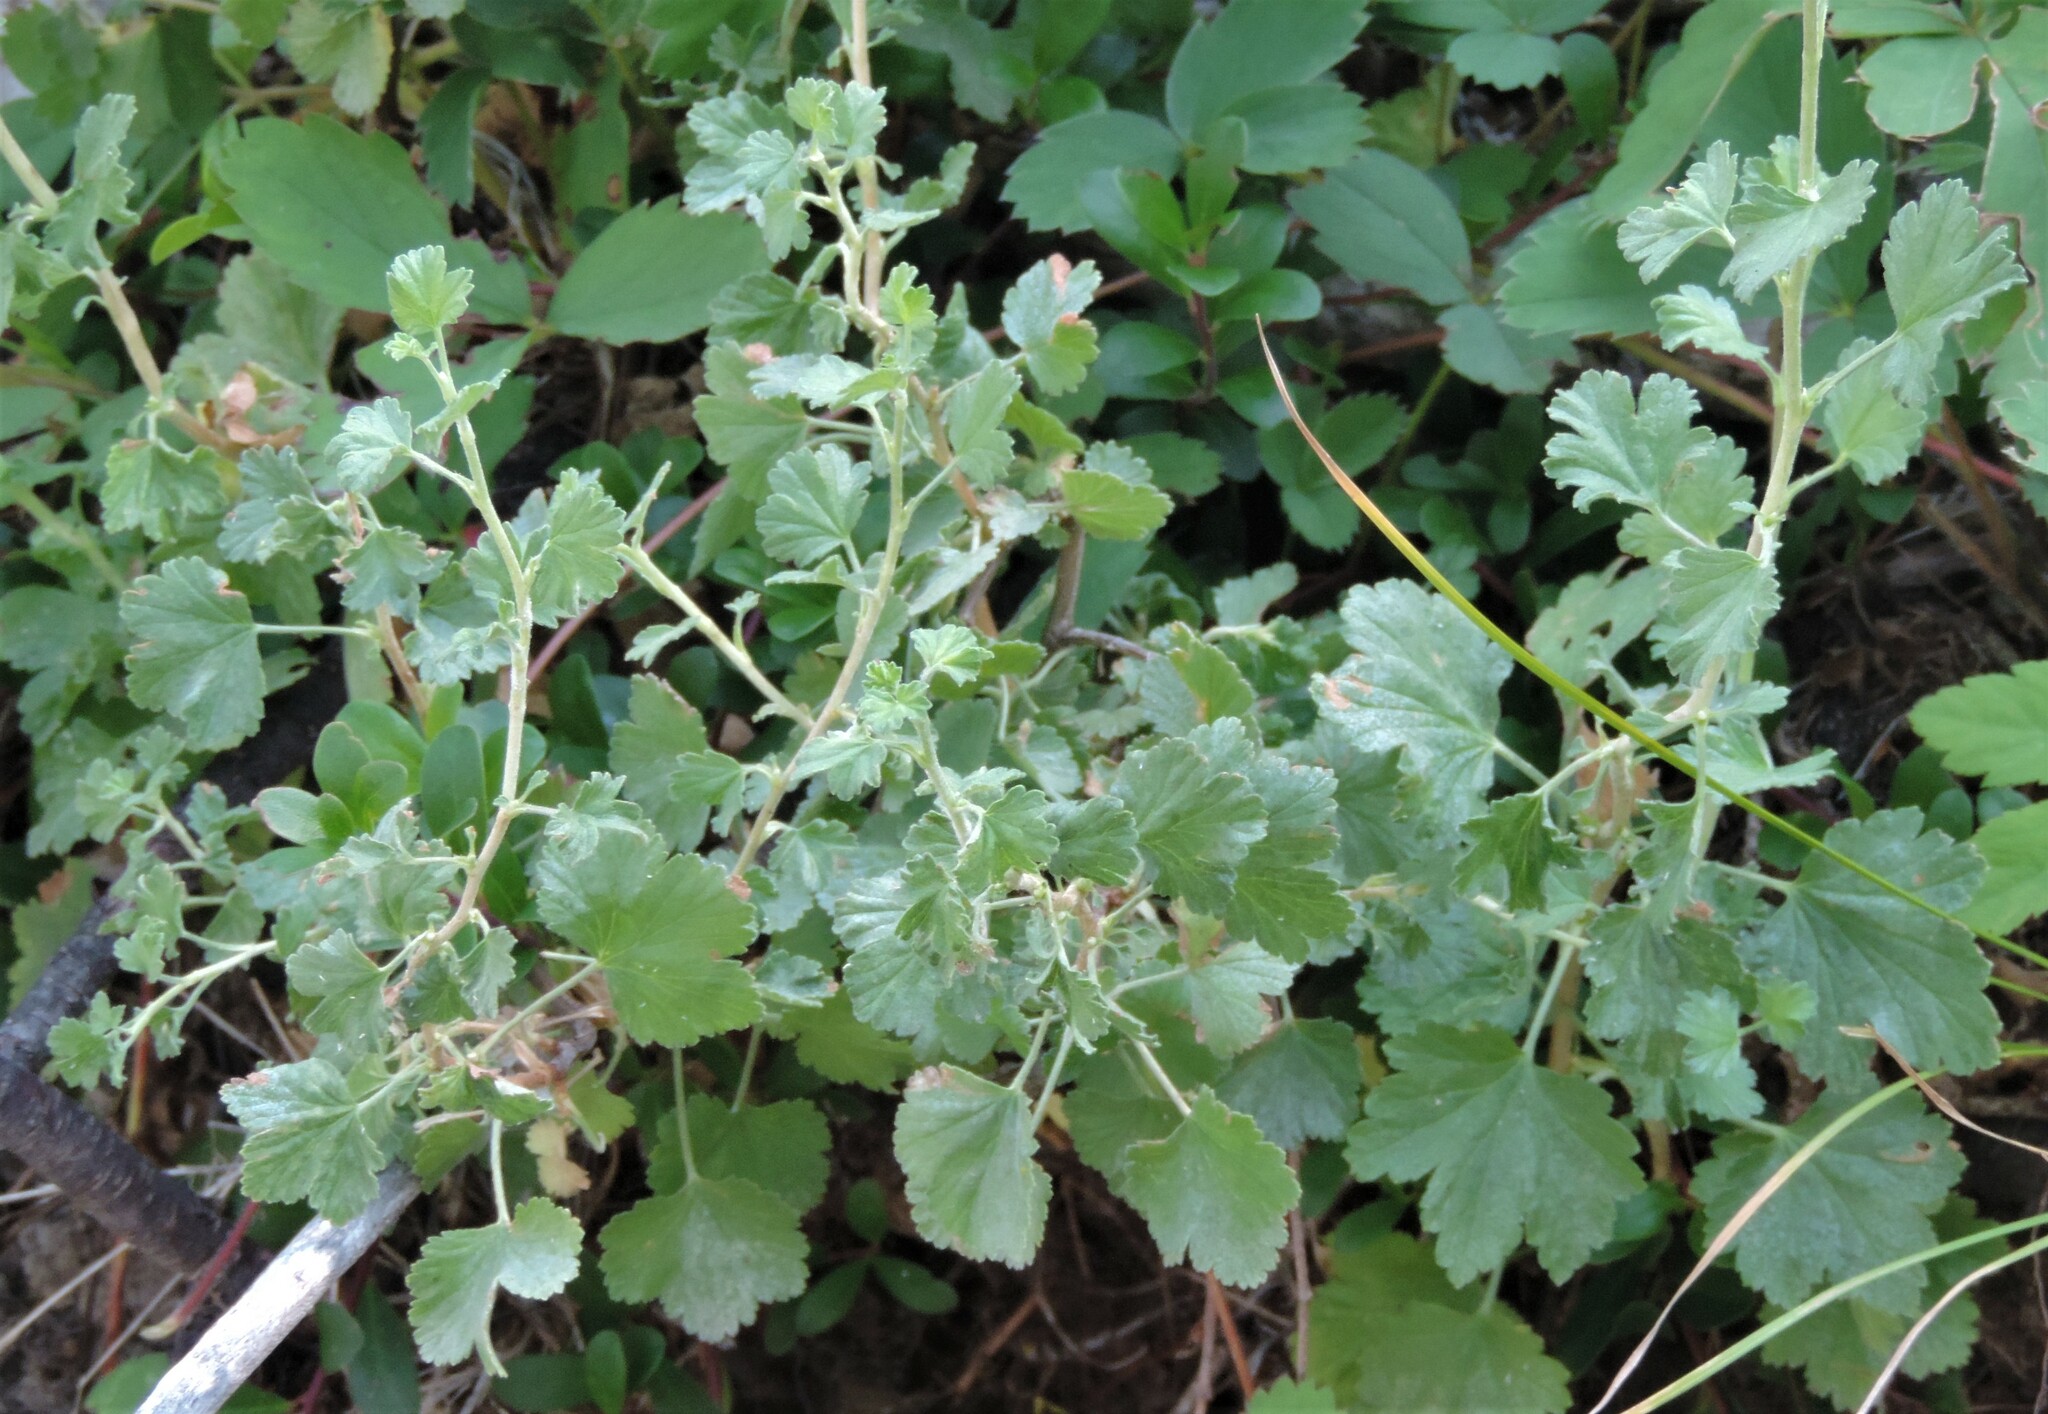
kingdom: Plantae
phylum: Tracheophyta
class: Magnoliopsida
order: Saxifragales
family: Grossulariaceae
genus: Ribes
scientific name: Ribes cereum
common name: Wax currant
